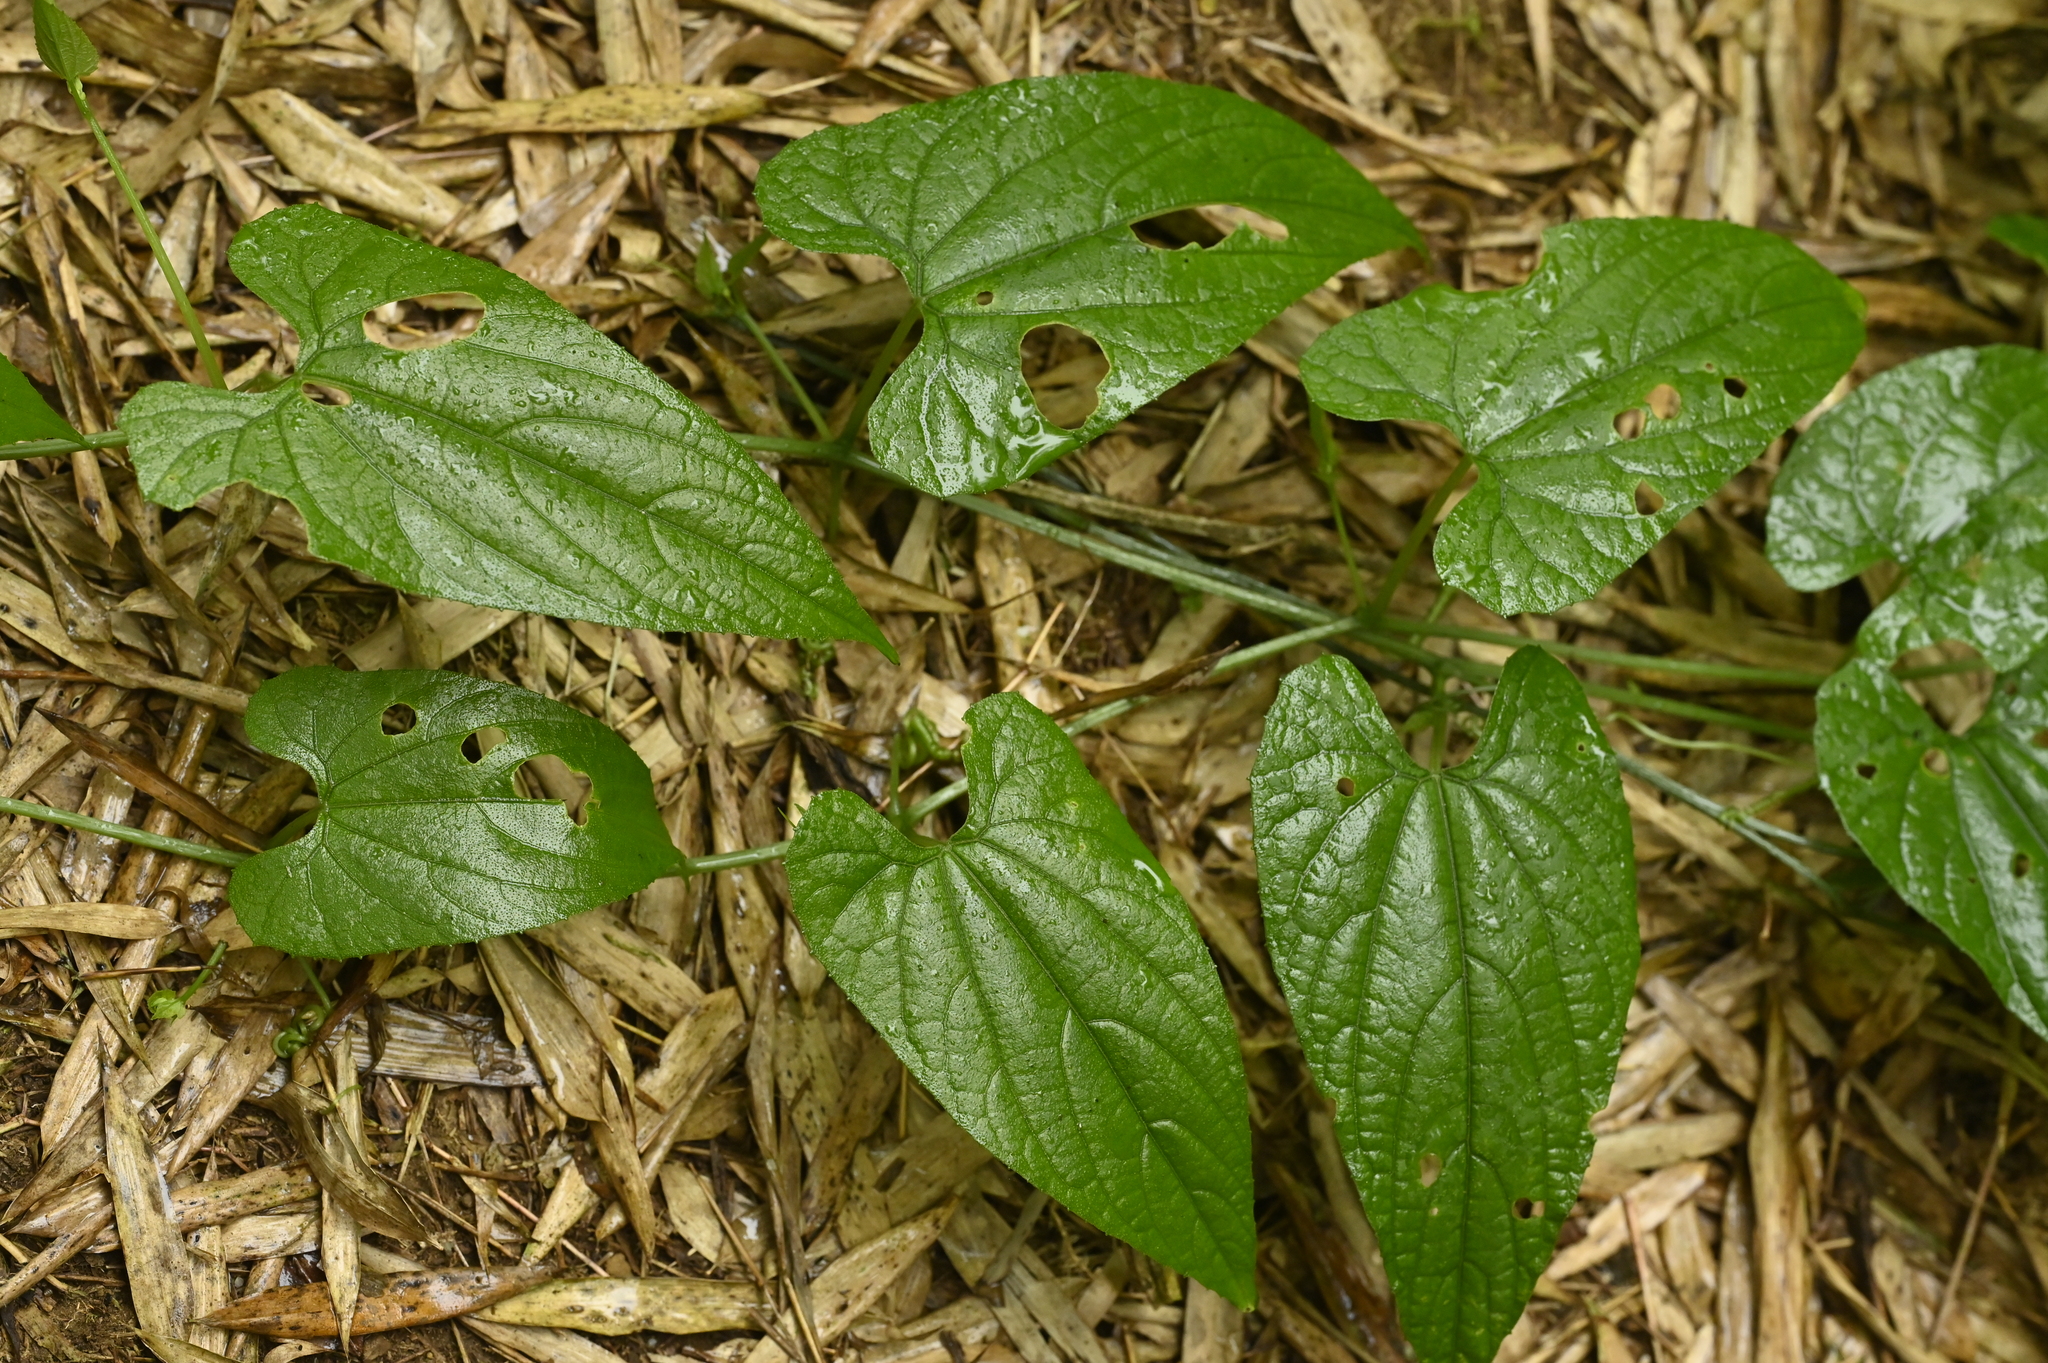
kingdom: Plantae
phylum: Tracheophyta
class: Magnoliopsida
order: Cucurbitales
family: Cucurbitaceae
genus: Thladiantha
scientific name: Thladiantha punctata
